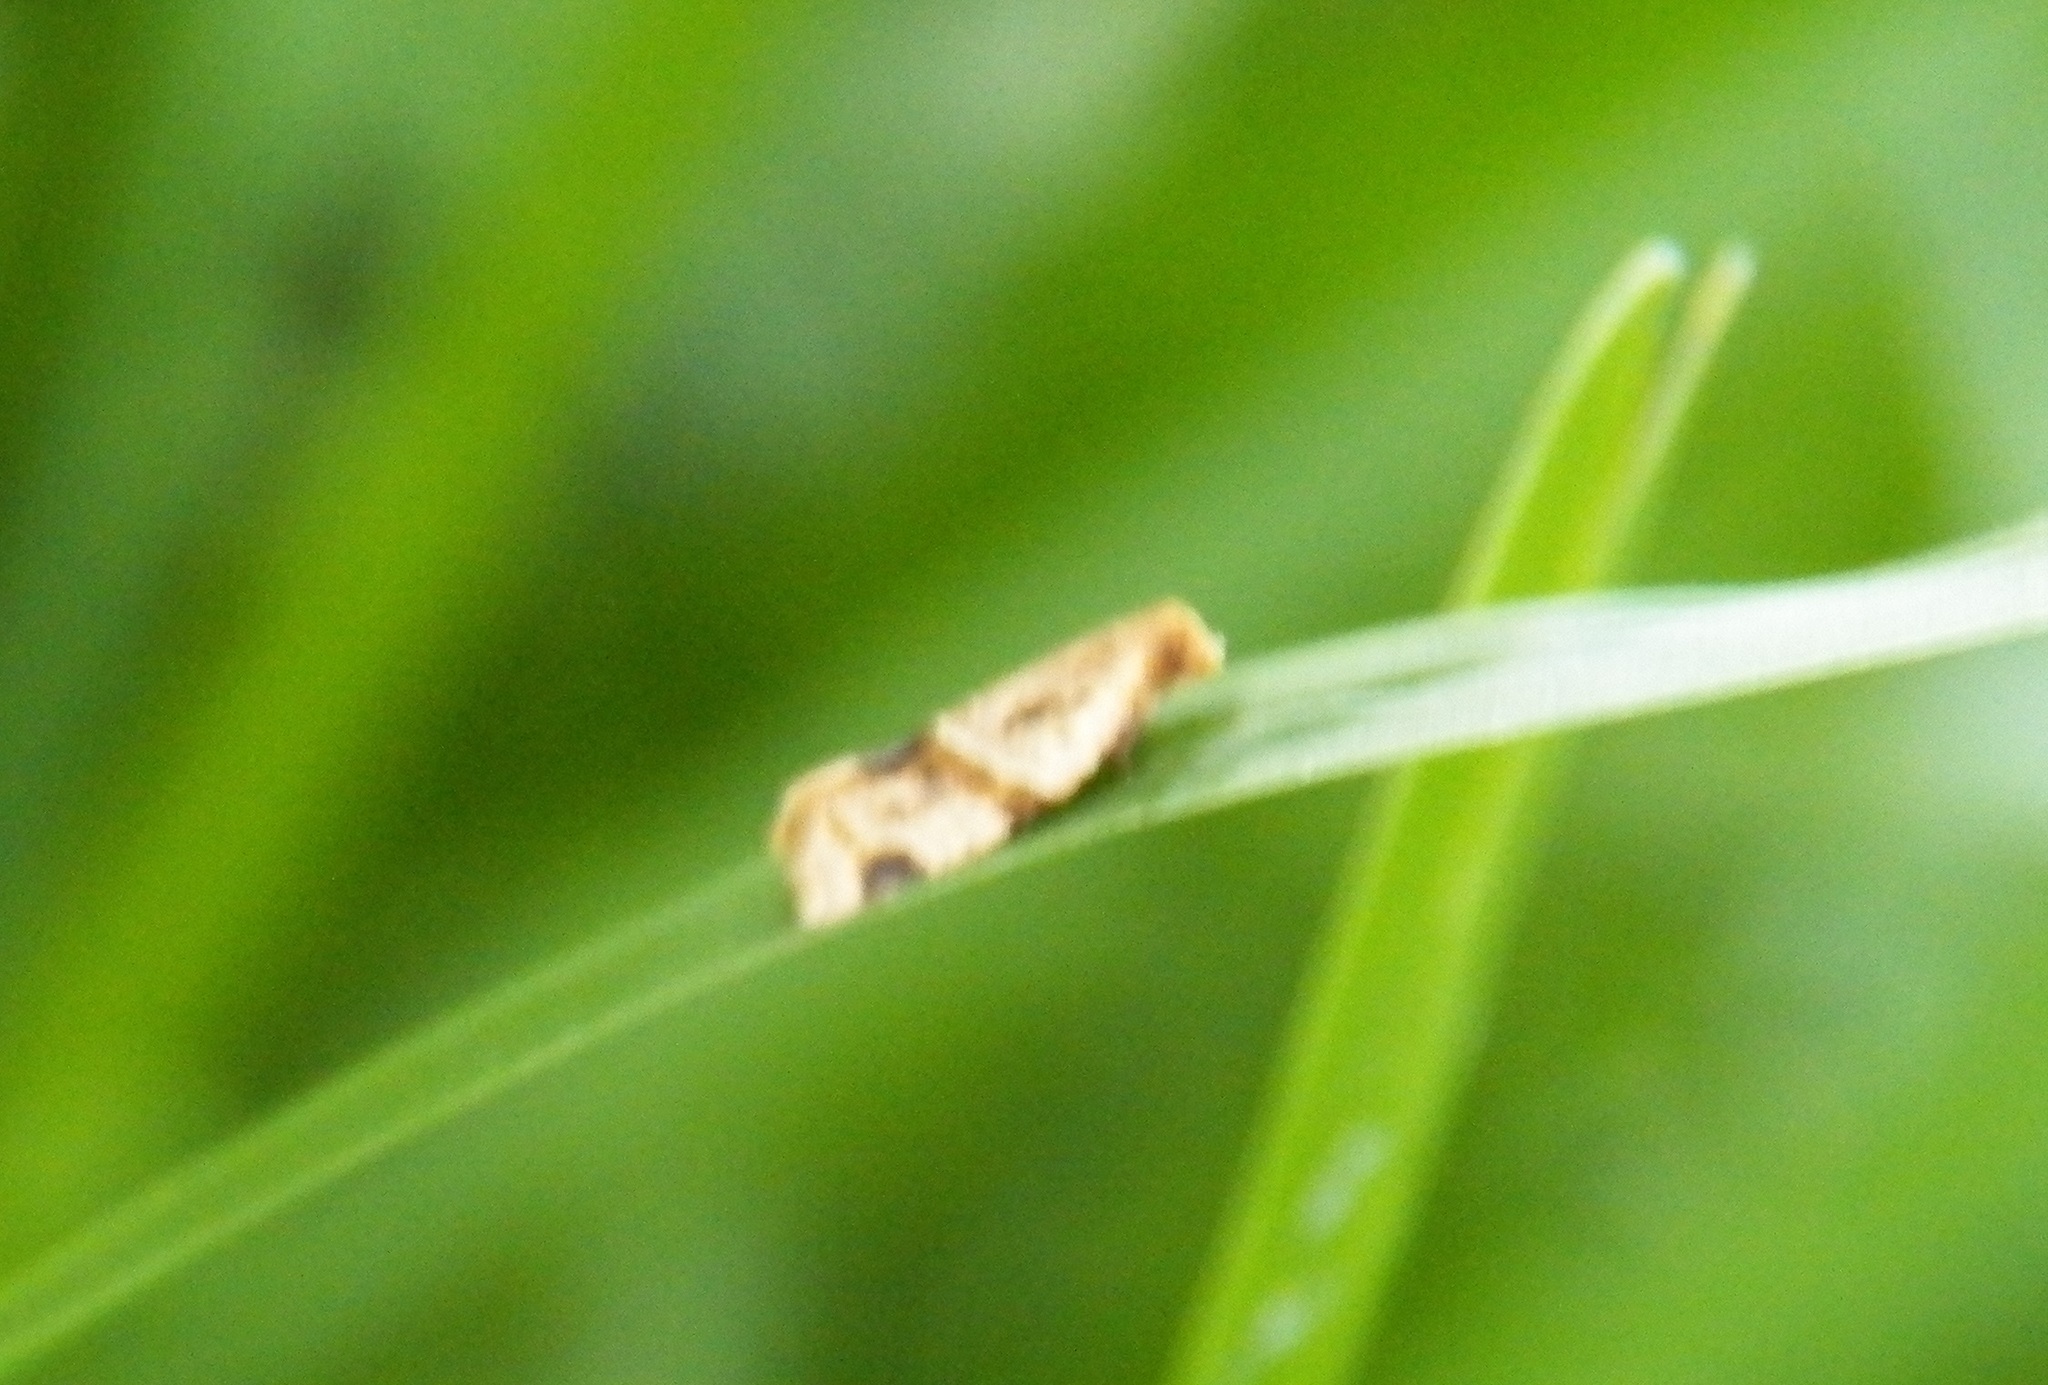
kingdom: Animalia
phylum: Arthropoda
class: Insecta
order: Lepidoptera
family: Tortricidae
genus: Clepsis
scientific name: Clepsis peritana
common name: Garden tortrix
